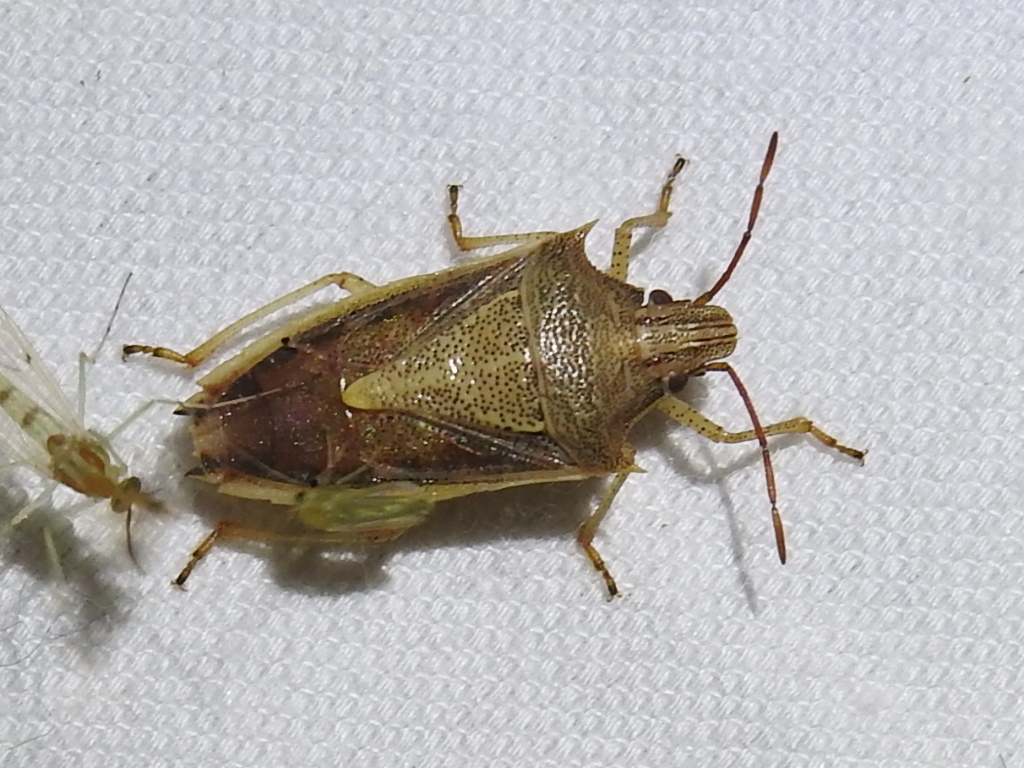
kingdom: Animalia
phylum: Arthropoda
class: Insecta
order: Hemiptera
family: Pentatomidae
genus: Oebalus
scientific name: Oebalus pugnax
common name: Rice stink bug
